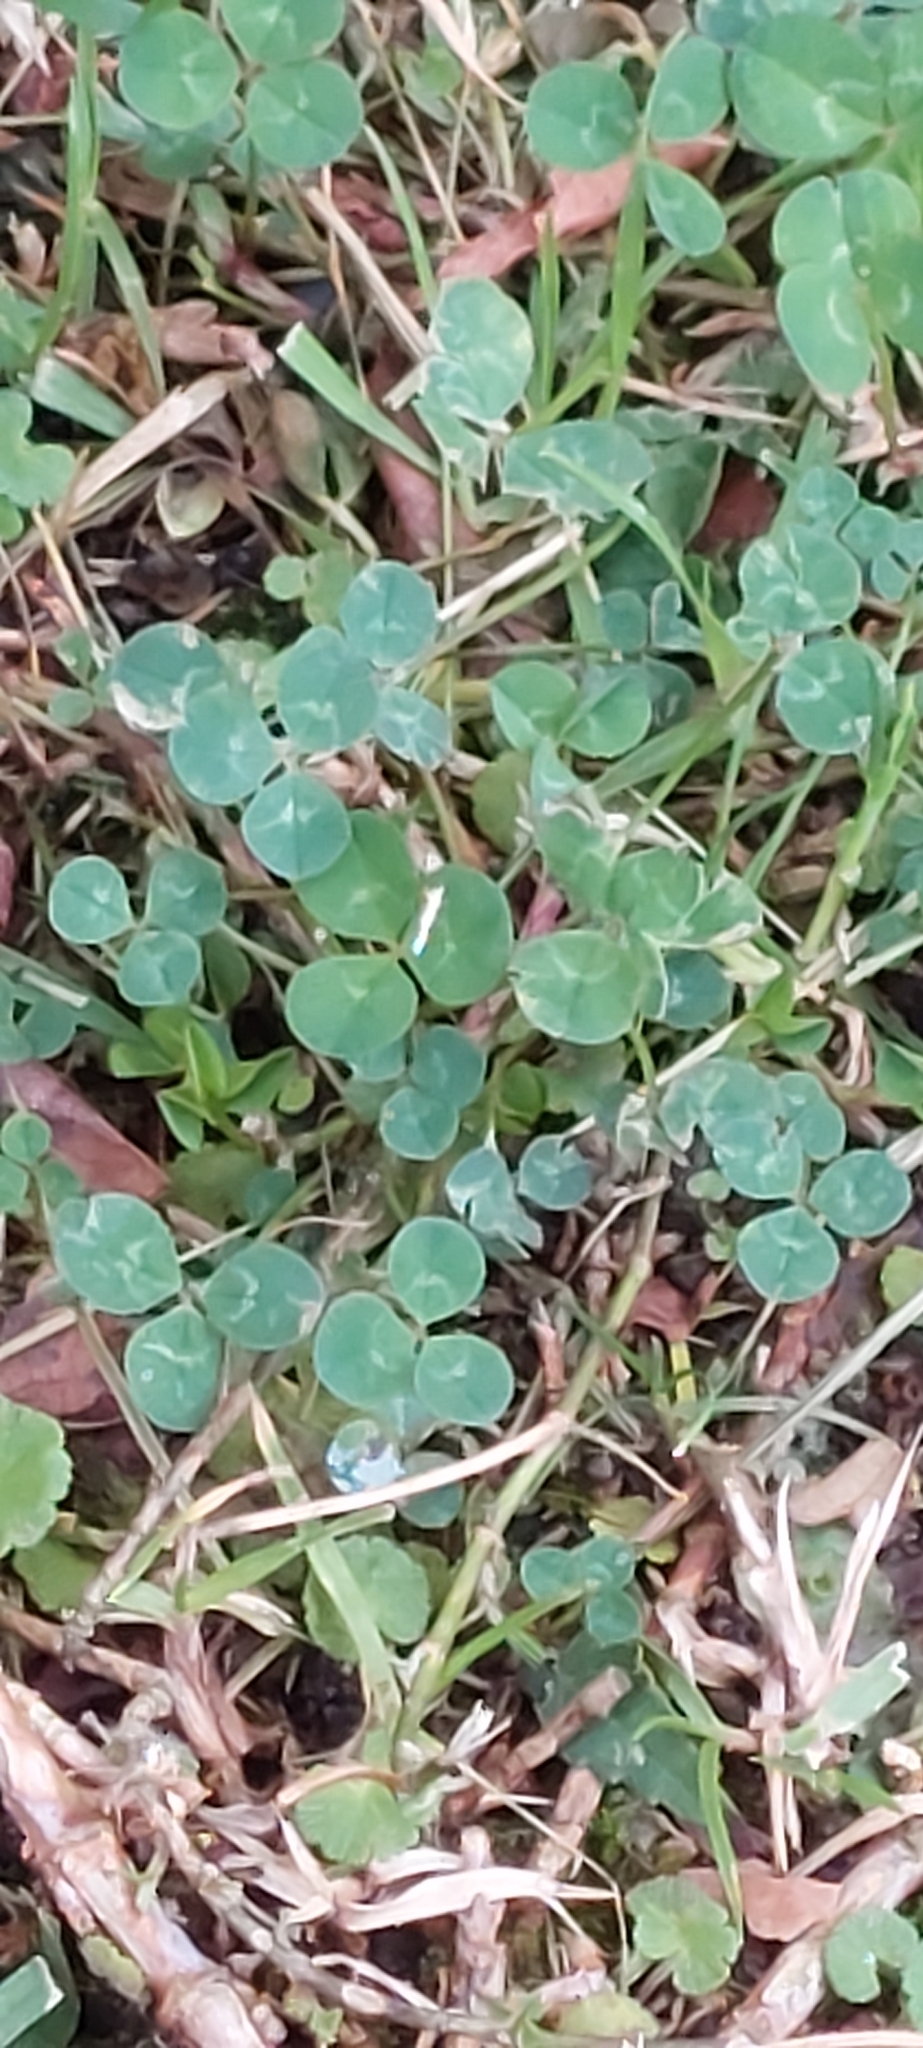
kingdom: Plantae
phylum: Tracheophyta
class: Magnoliopsida
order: Fabales
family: Fabaceae
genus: Trifolium
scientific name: Trifolium repens
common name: White clover
